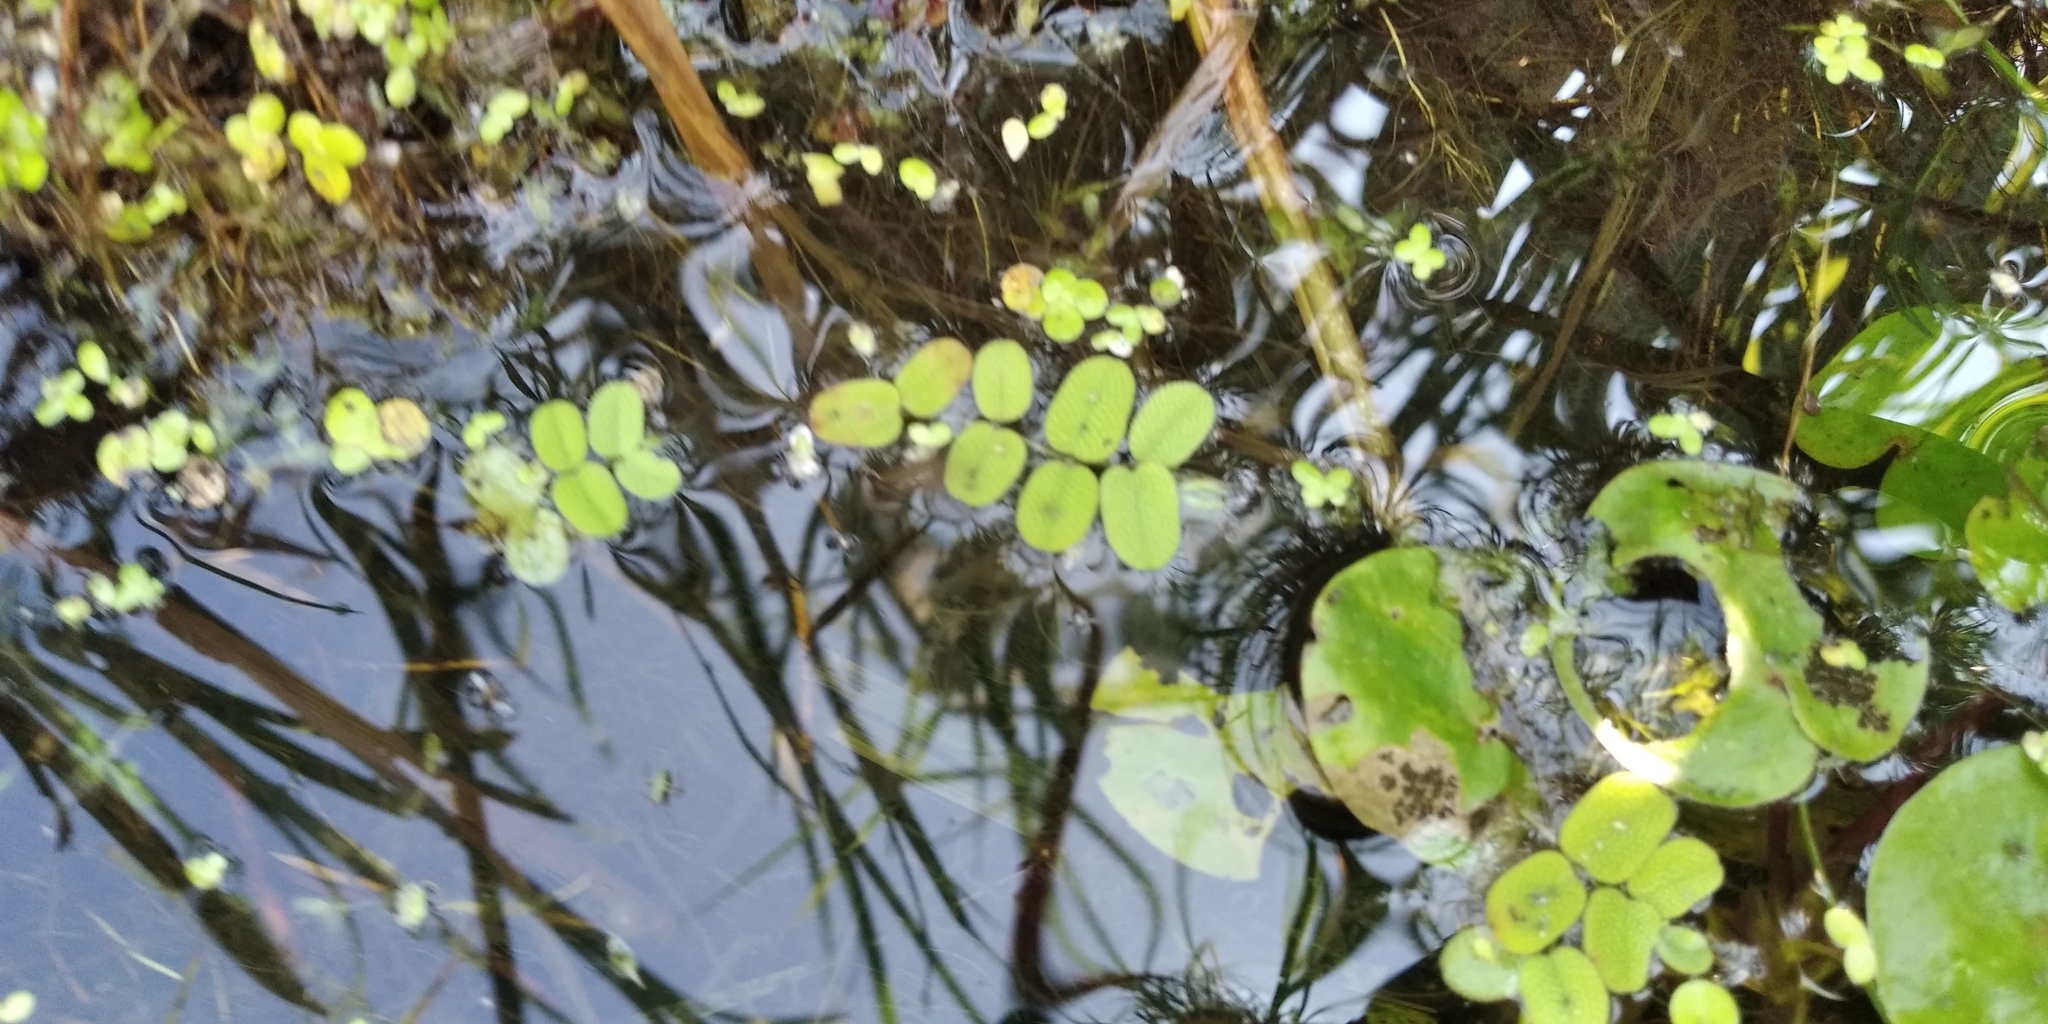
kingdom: Plantae
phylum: Tracheophyta
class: Polypodiopsida
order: Salviniales
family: Salviniaceae
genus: Salvinia
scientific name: Salvinia natans
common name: Floating fern
